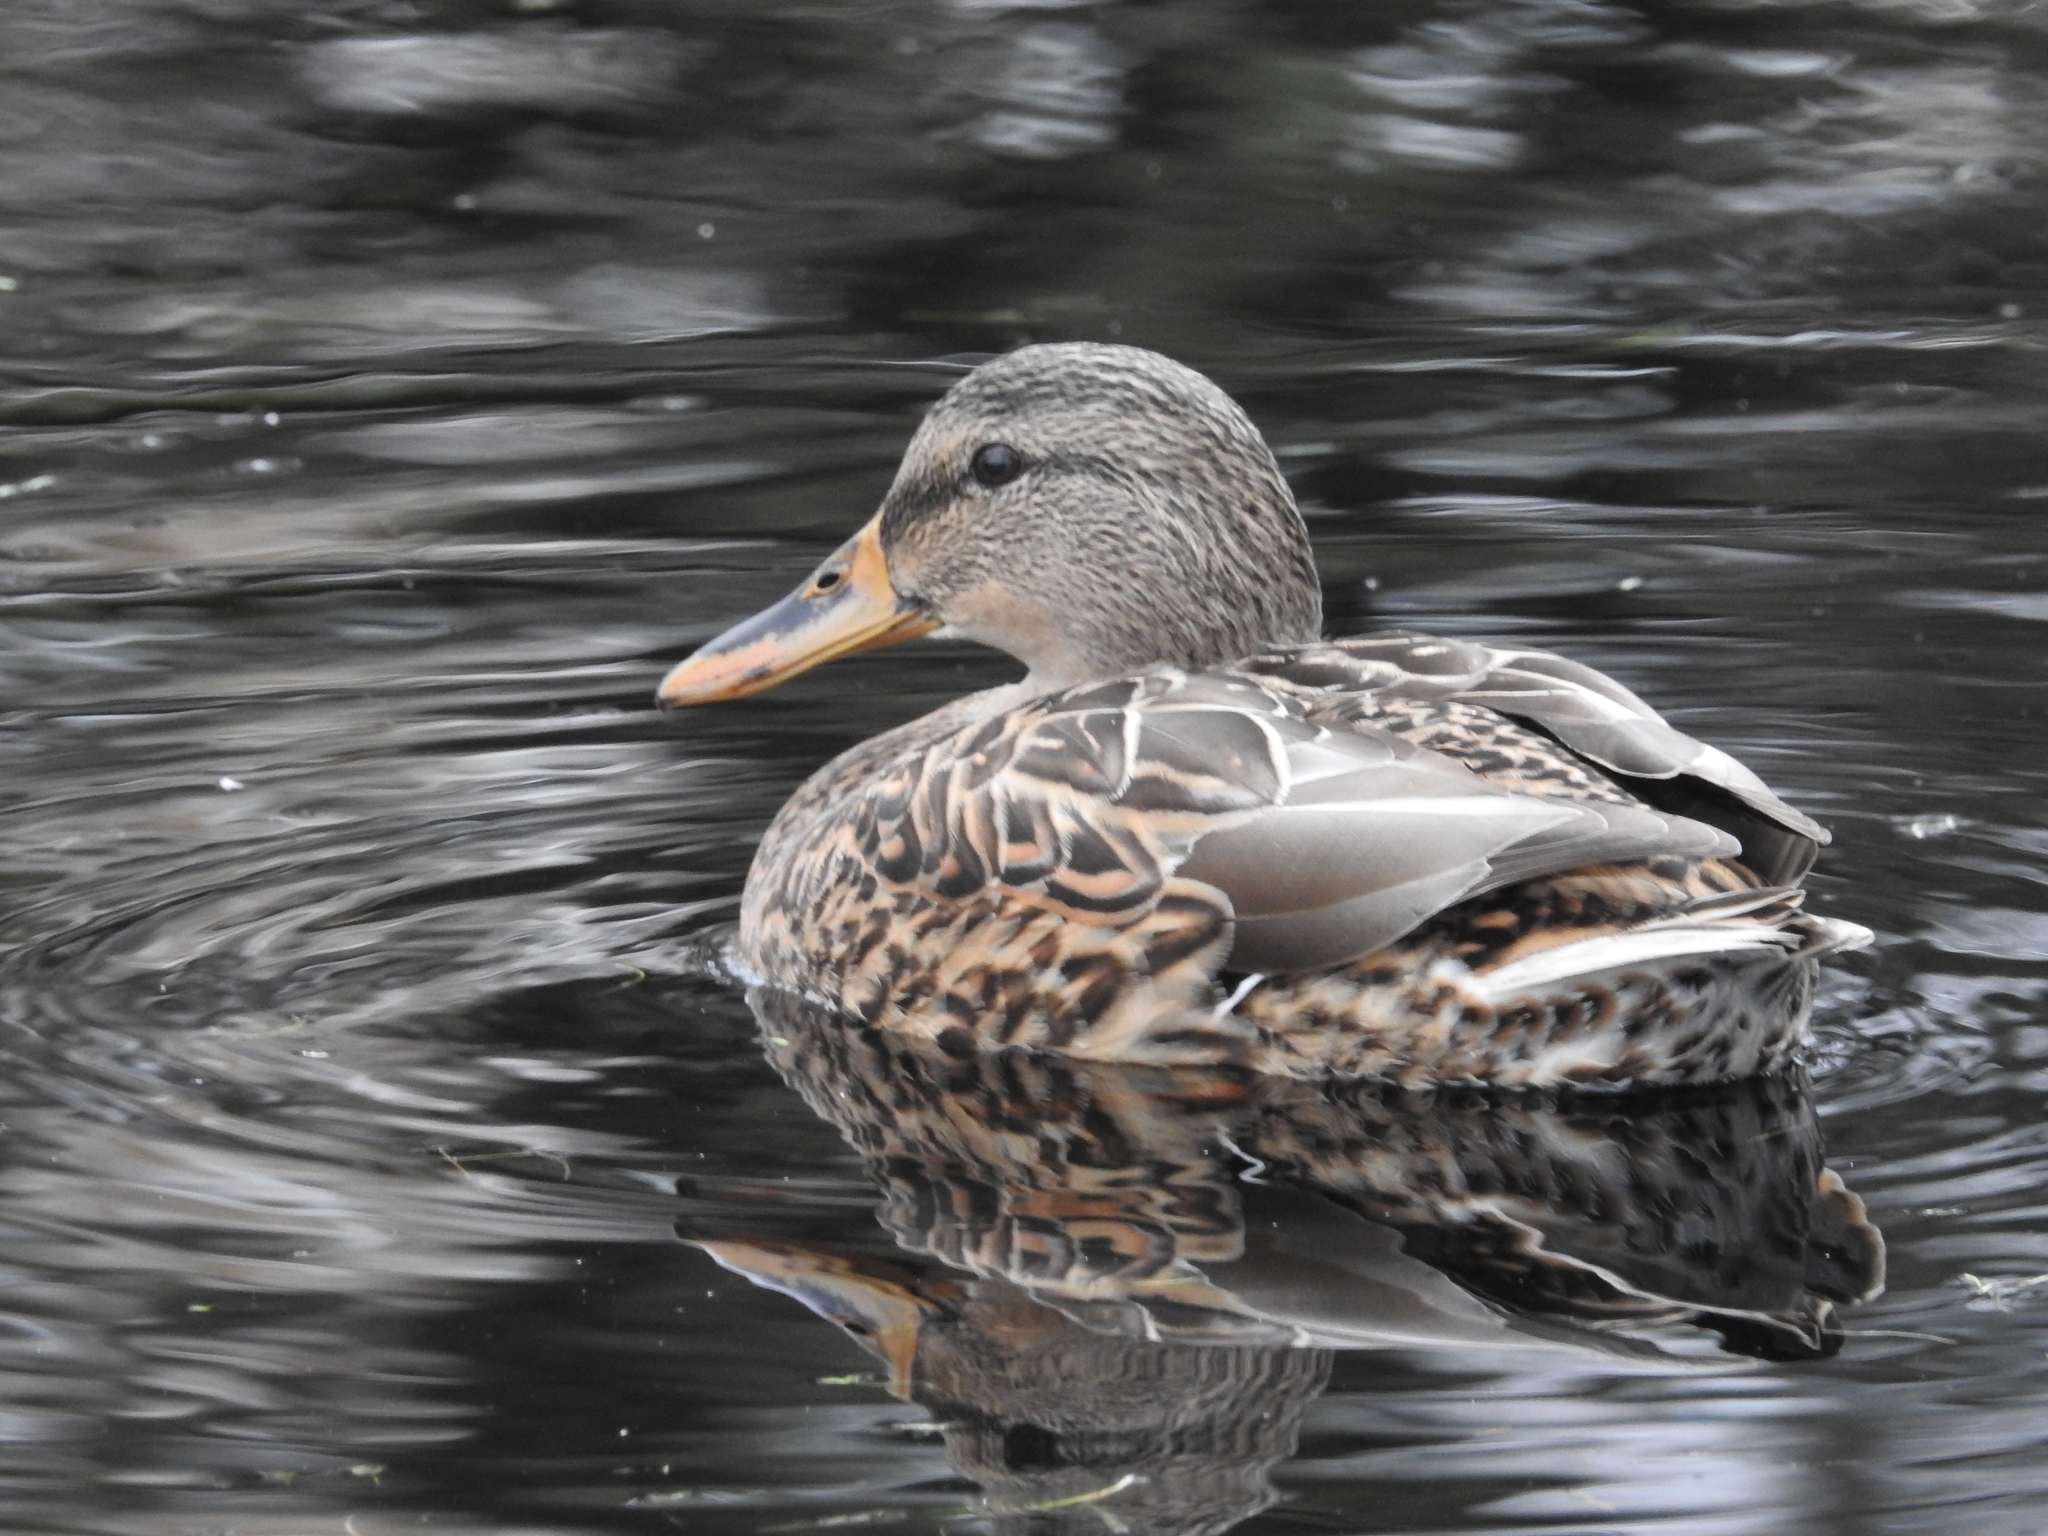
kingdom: Animalia
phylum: Chordata
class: Aves
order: Anseriformes
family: Anatidae
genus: Anas
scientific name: Anas platyrhynchos
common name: Mallard
